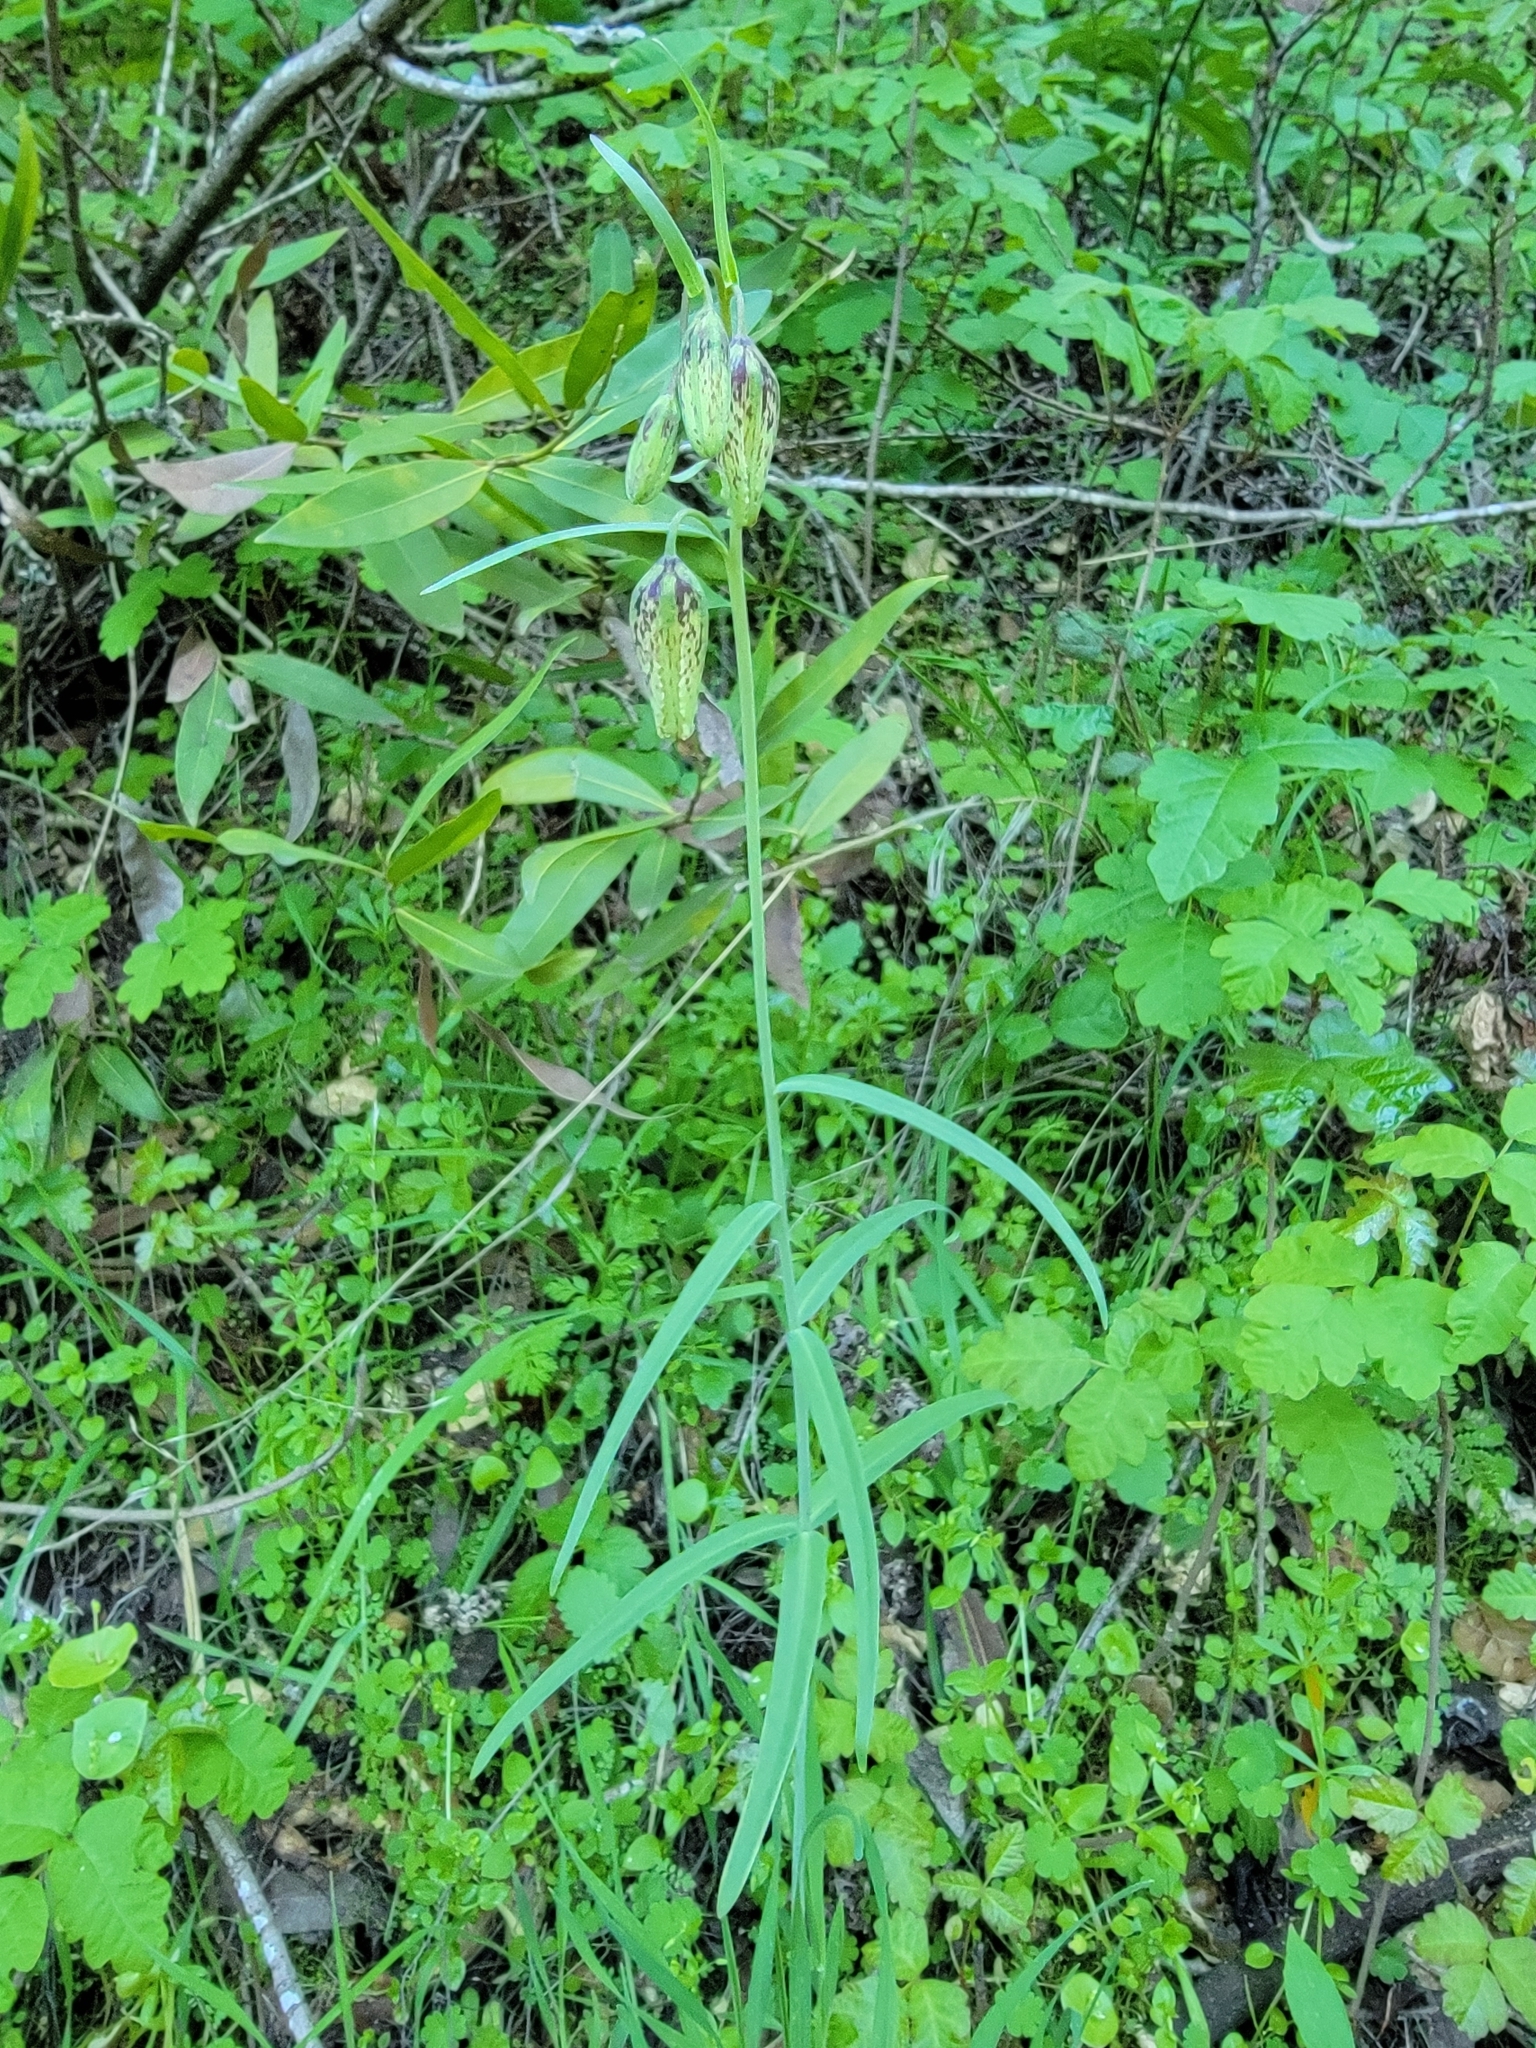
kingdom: Plantae
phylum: Tracheophyta
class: Liliopsida
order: Liliales
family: Liliaceae
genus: Fritillaria
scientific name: Fritillaria affinis
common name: Ojai fritillary
